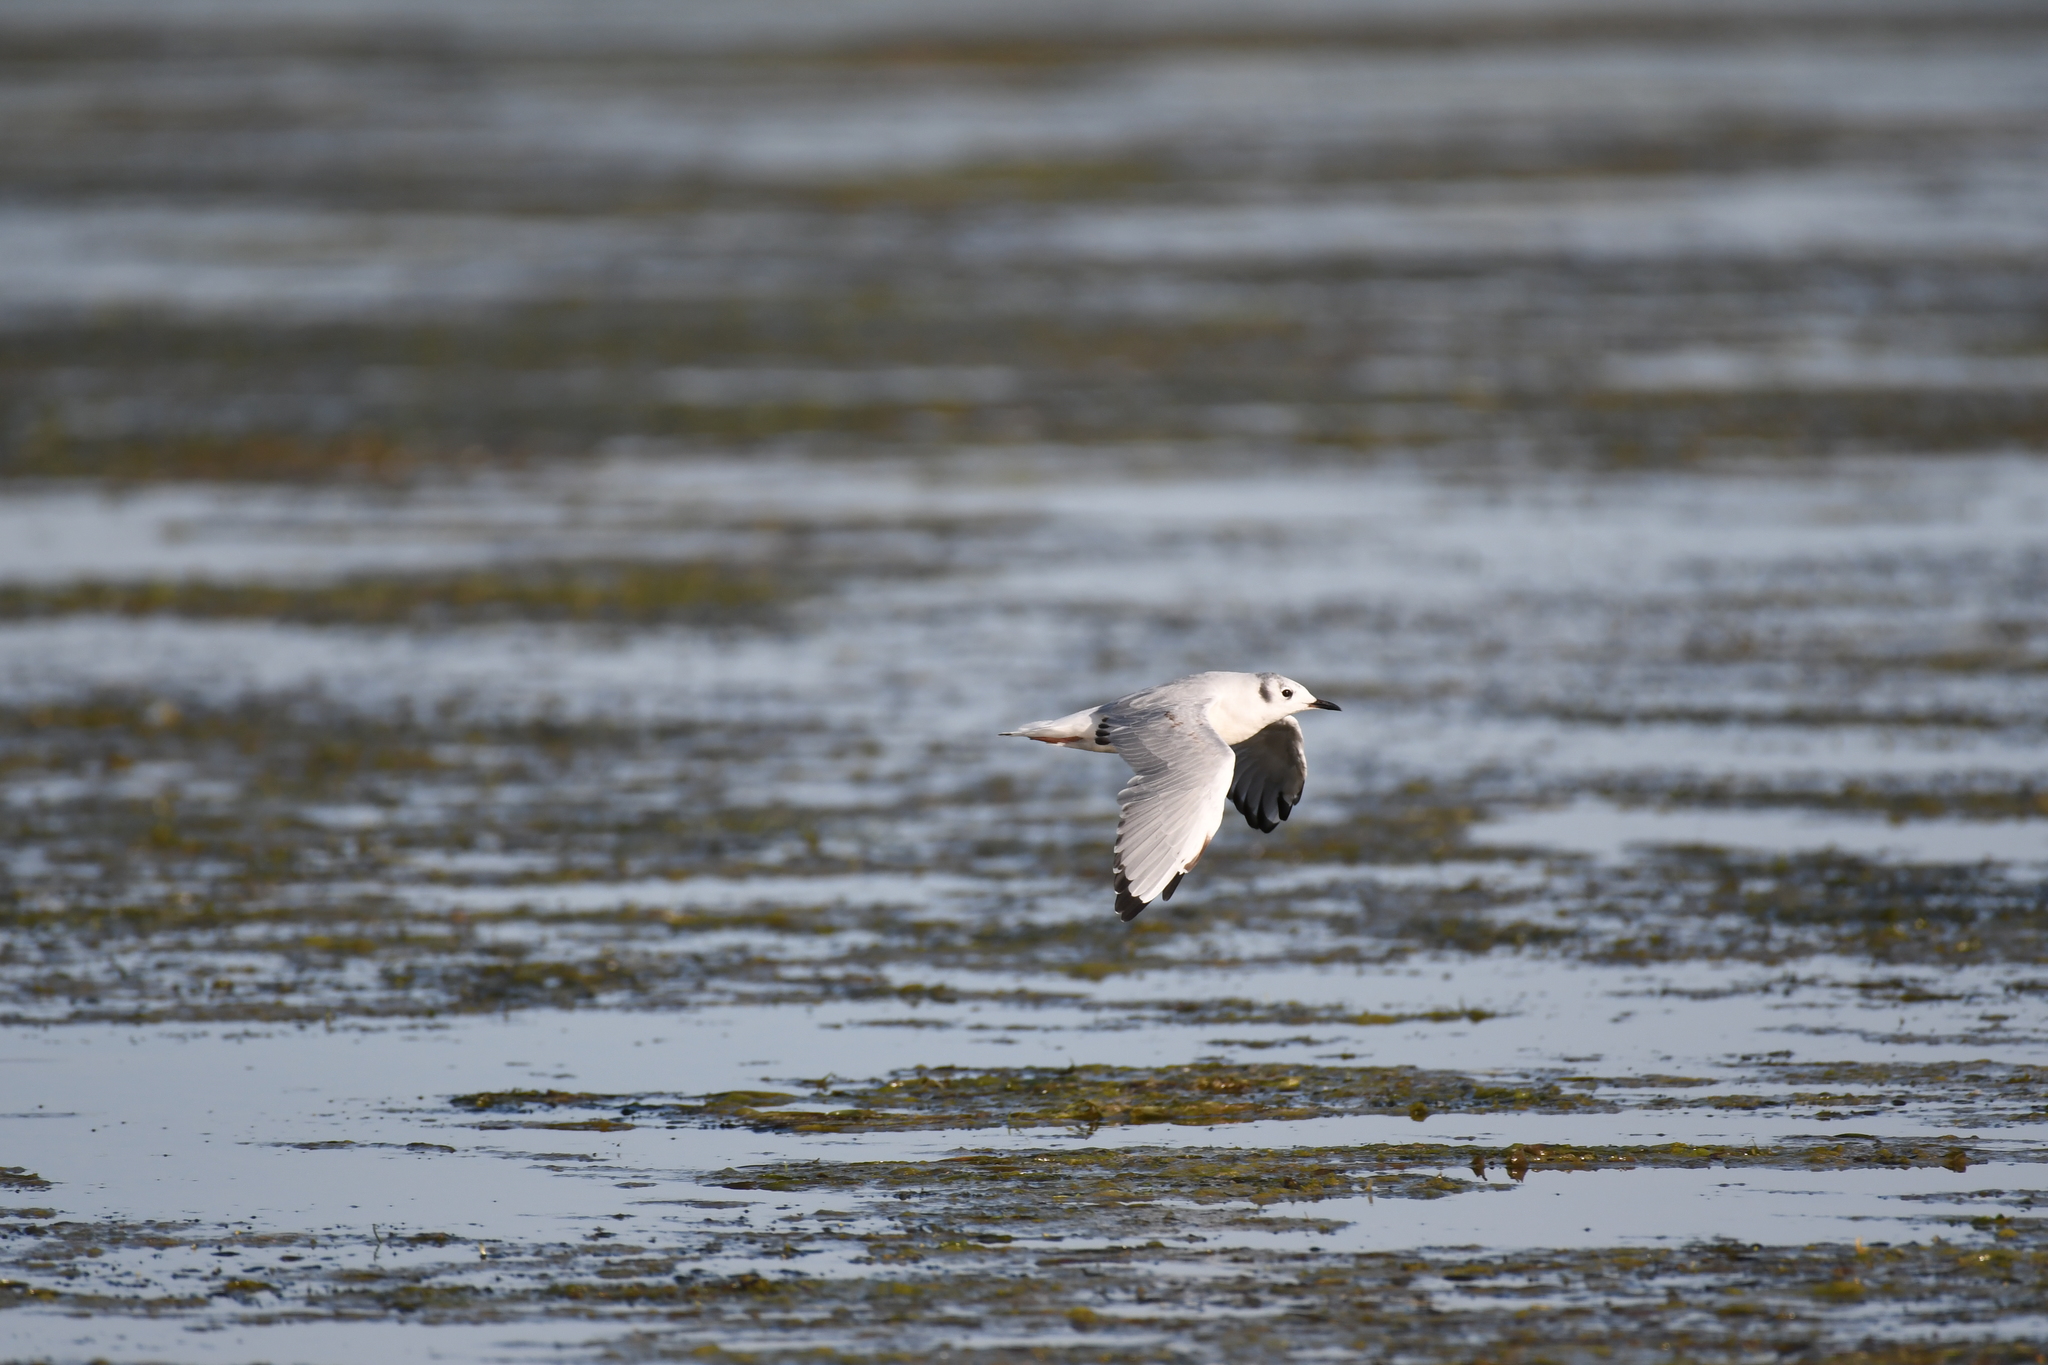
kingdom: Animalia
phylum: Chordata
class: Aves
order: Charadriiformes
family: Laridae
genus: Chroicocephalus
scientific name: Chroicocephalus philadelphia
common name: Bonaparte's gull
